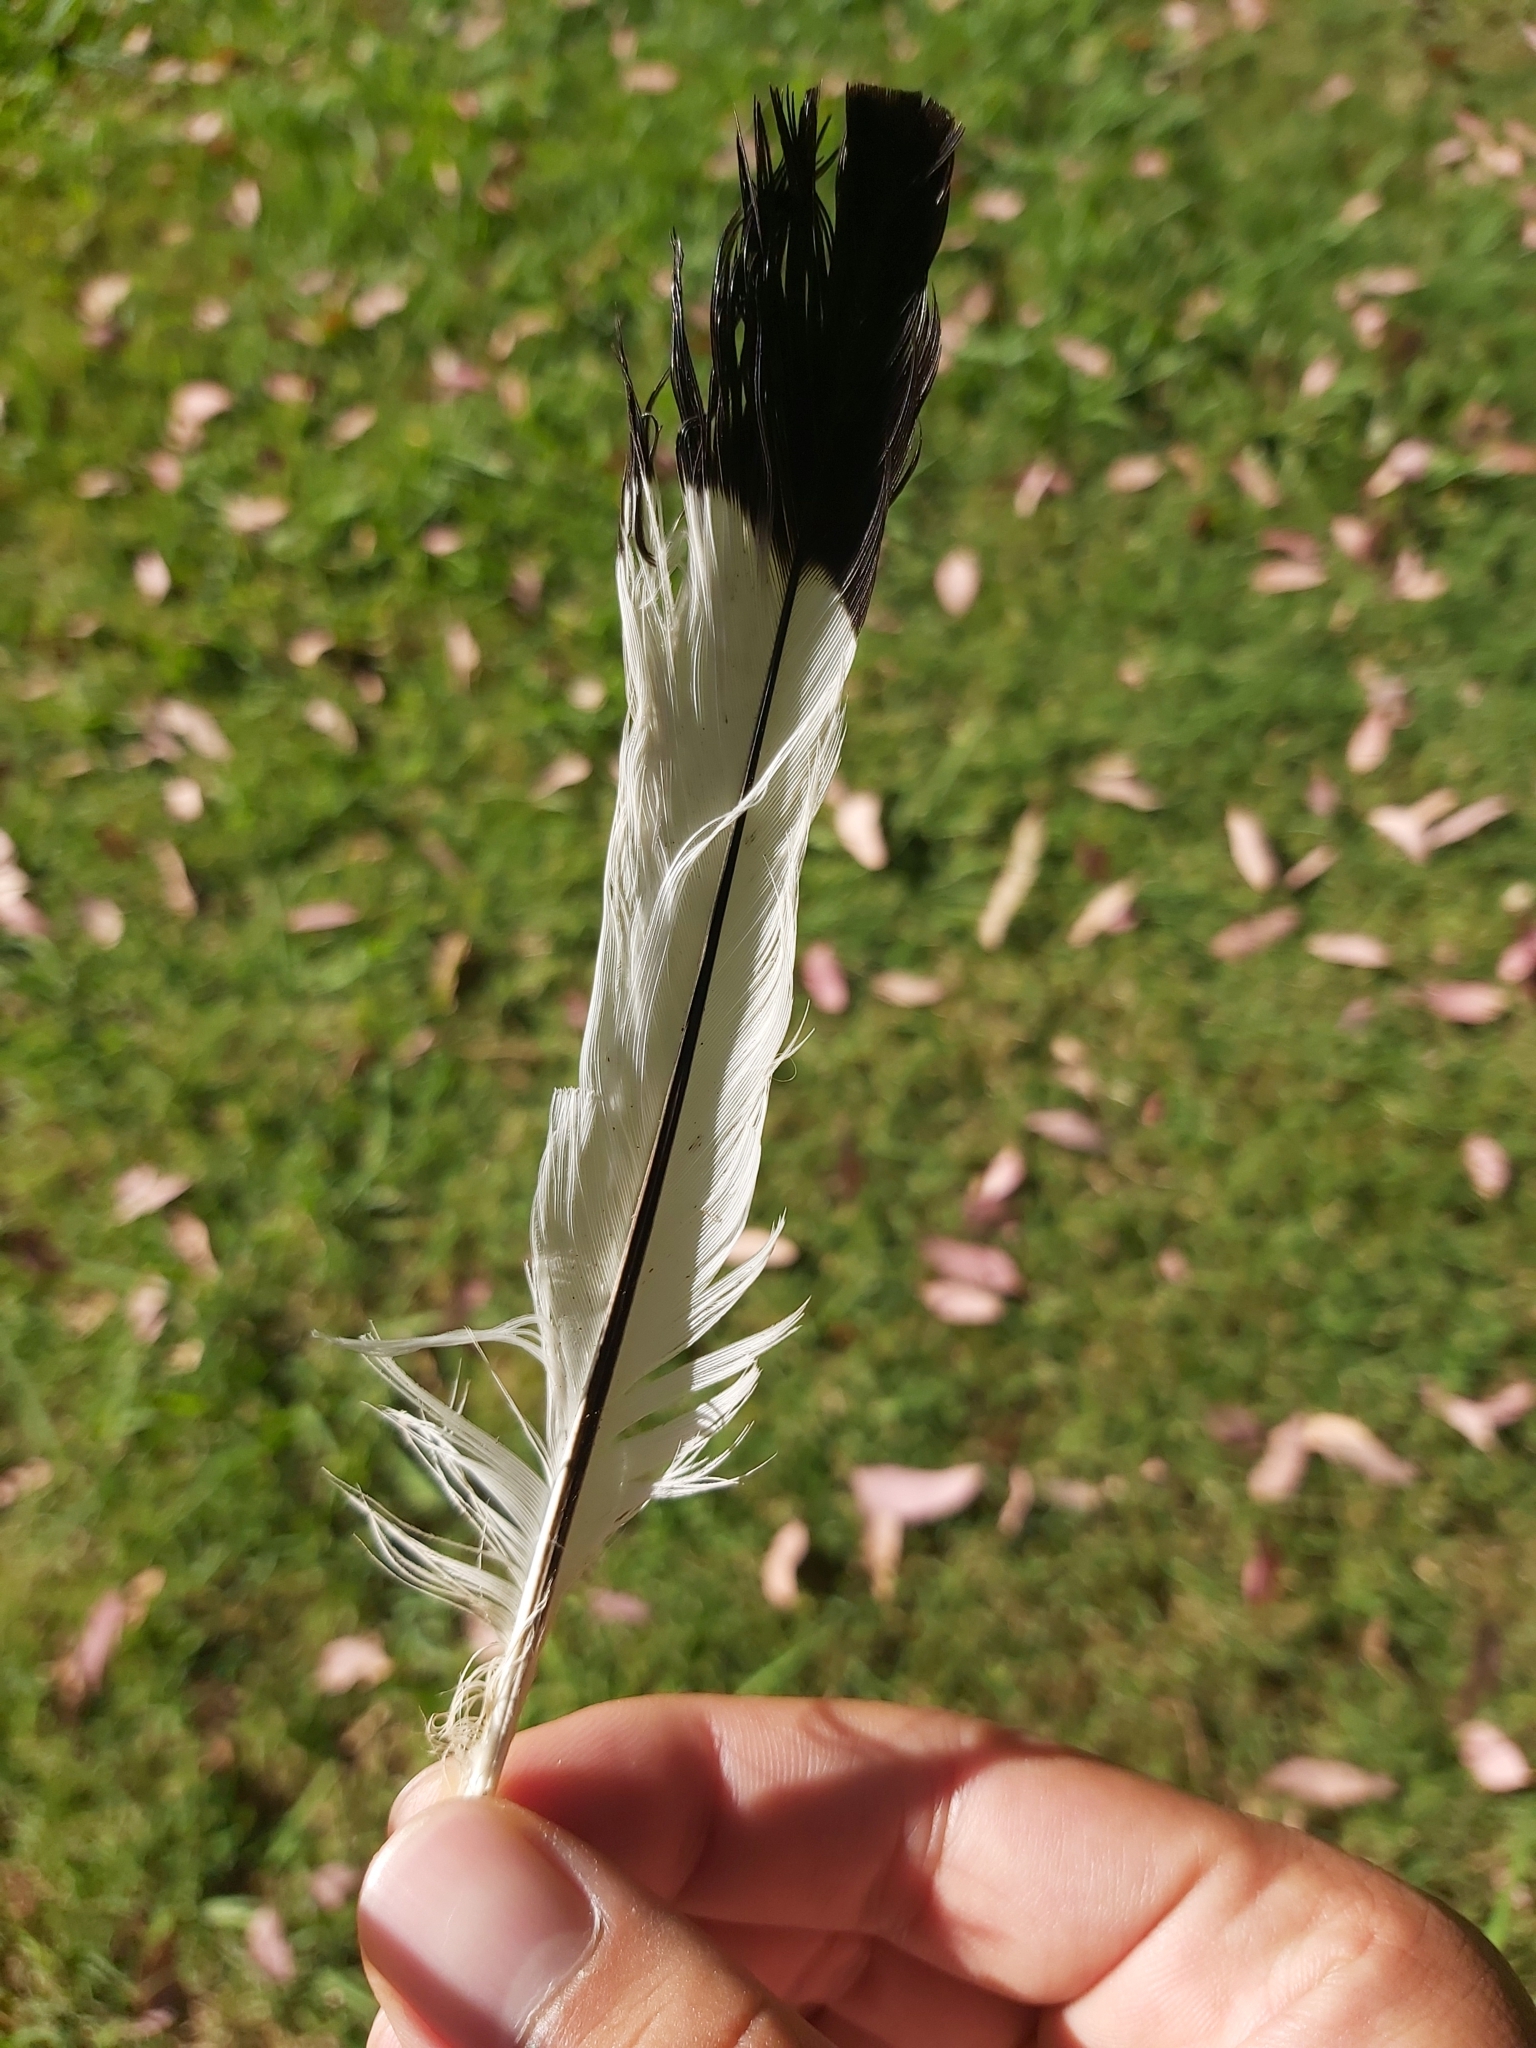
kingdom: Animalia
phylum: Chordata
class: Aves
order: Passeriformes
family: Cracticidae
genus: Gymnorhina
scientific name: Gymnorhina tibicen
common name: Australian magpie
